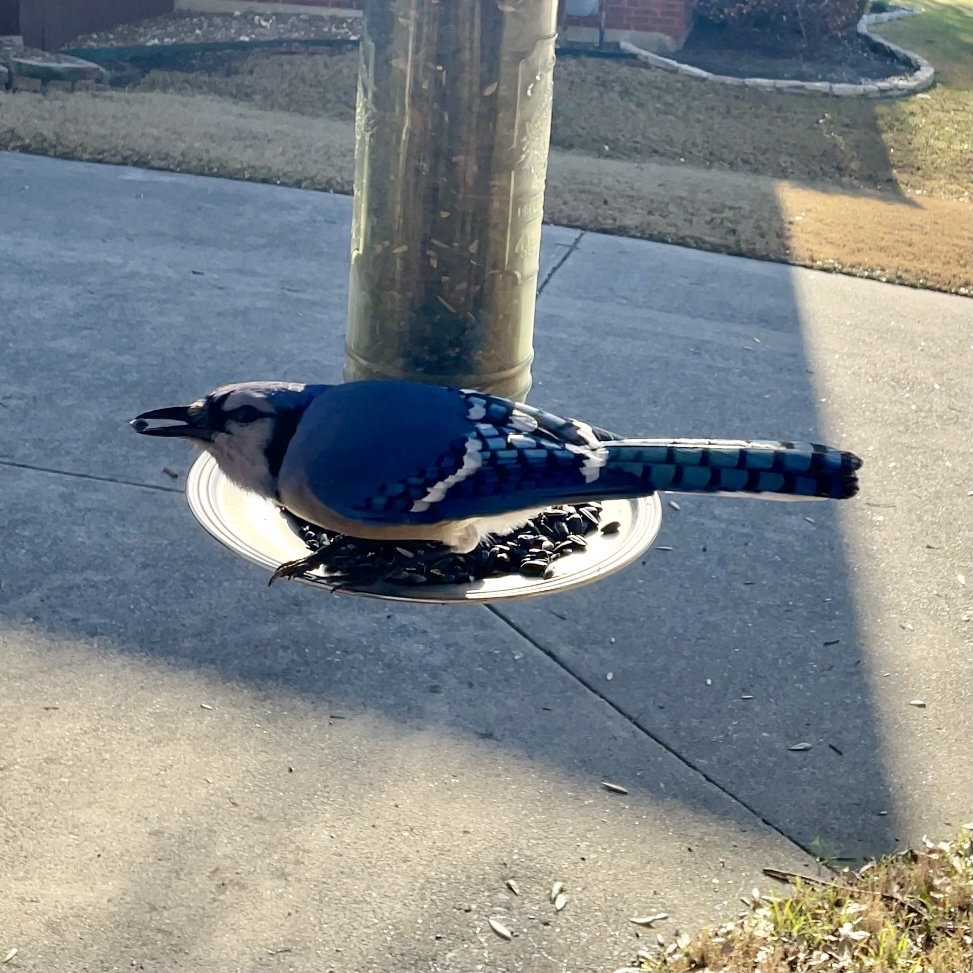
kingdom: Animalia
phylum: Chordata
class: Aves
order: Passeriformes
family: Corvidae
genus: Cyanocitta
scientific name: Cyanocitta cristata
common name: Blue jay
